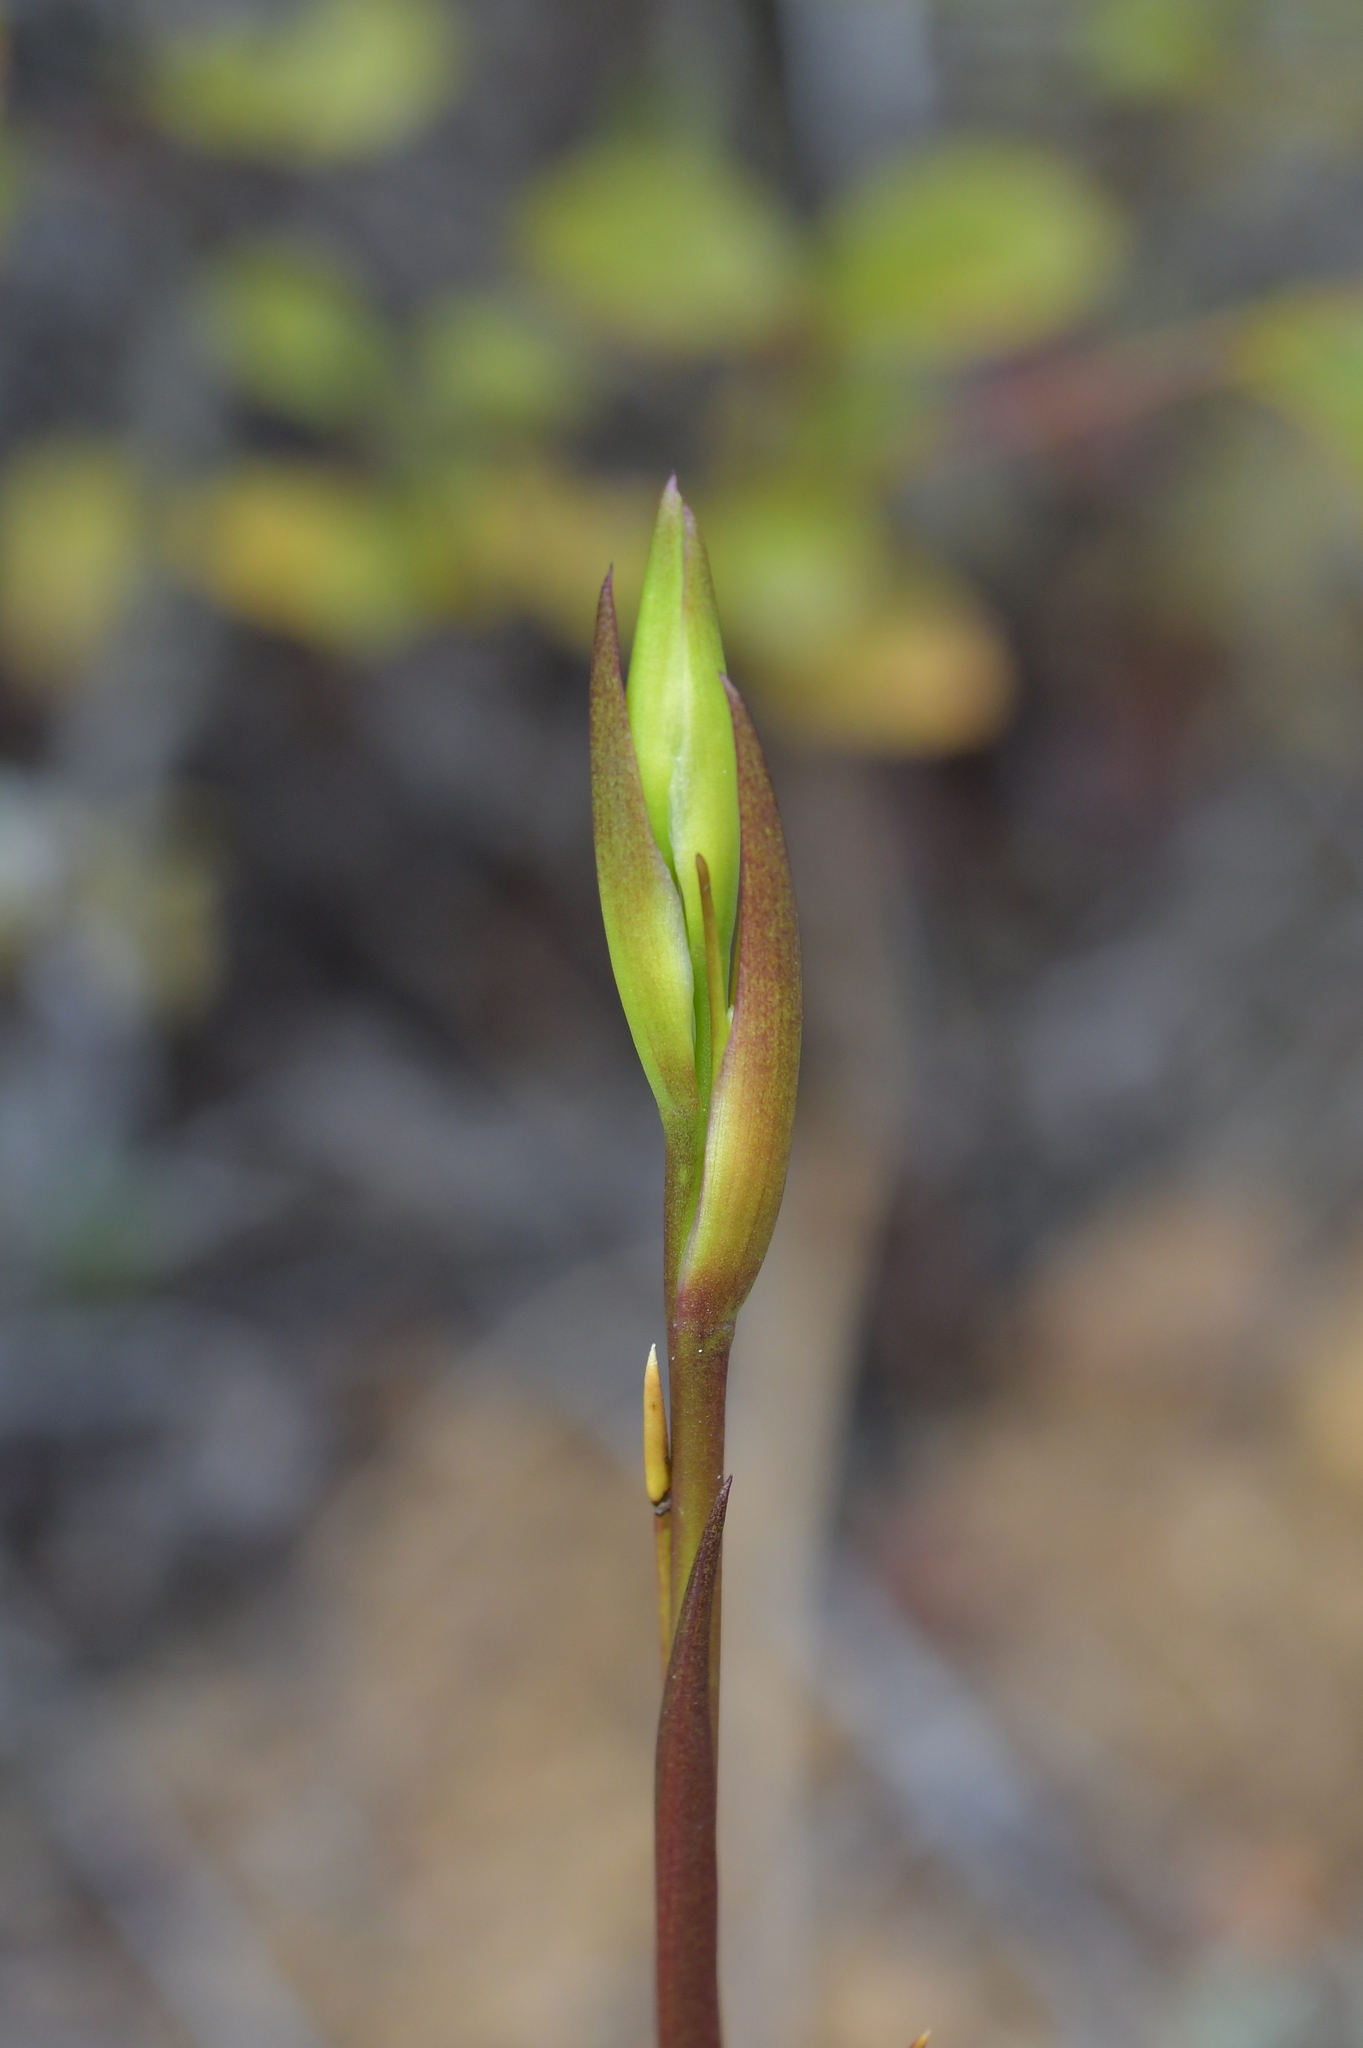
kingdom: Plantae
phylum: Tracheophyta
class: Liliopsida
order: Asparagales
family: Orchidaceae
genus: Orthoceras
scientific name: Orthoceras novae-zeelandiae
